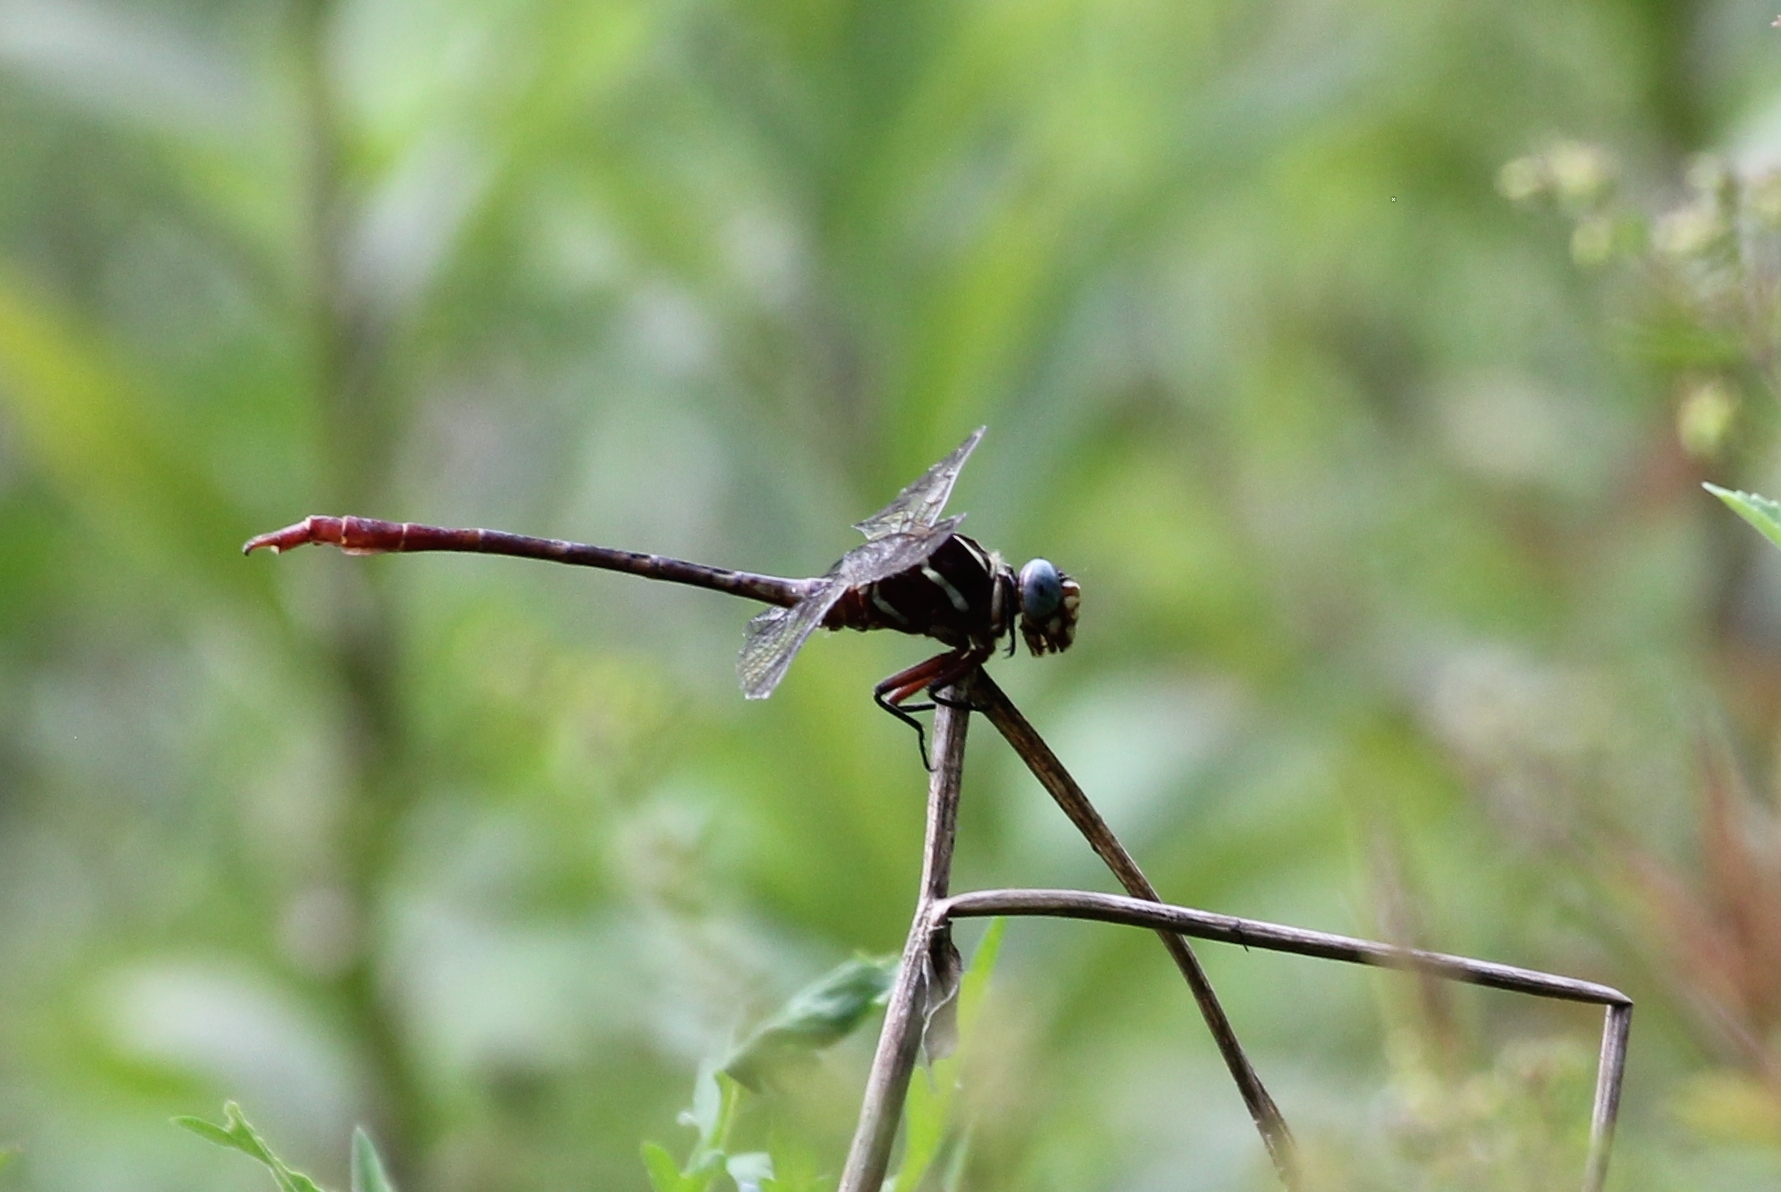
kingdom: Animalia
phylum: Arthropoda
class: Insecta
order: Odonata
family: Gomphidae
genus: Aphylla
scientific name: Aphylla williamsoni
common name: Two-striped forceptail
